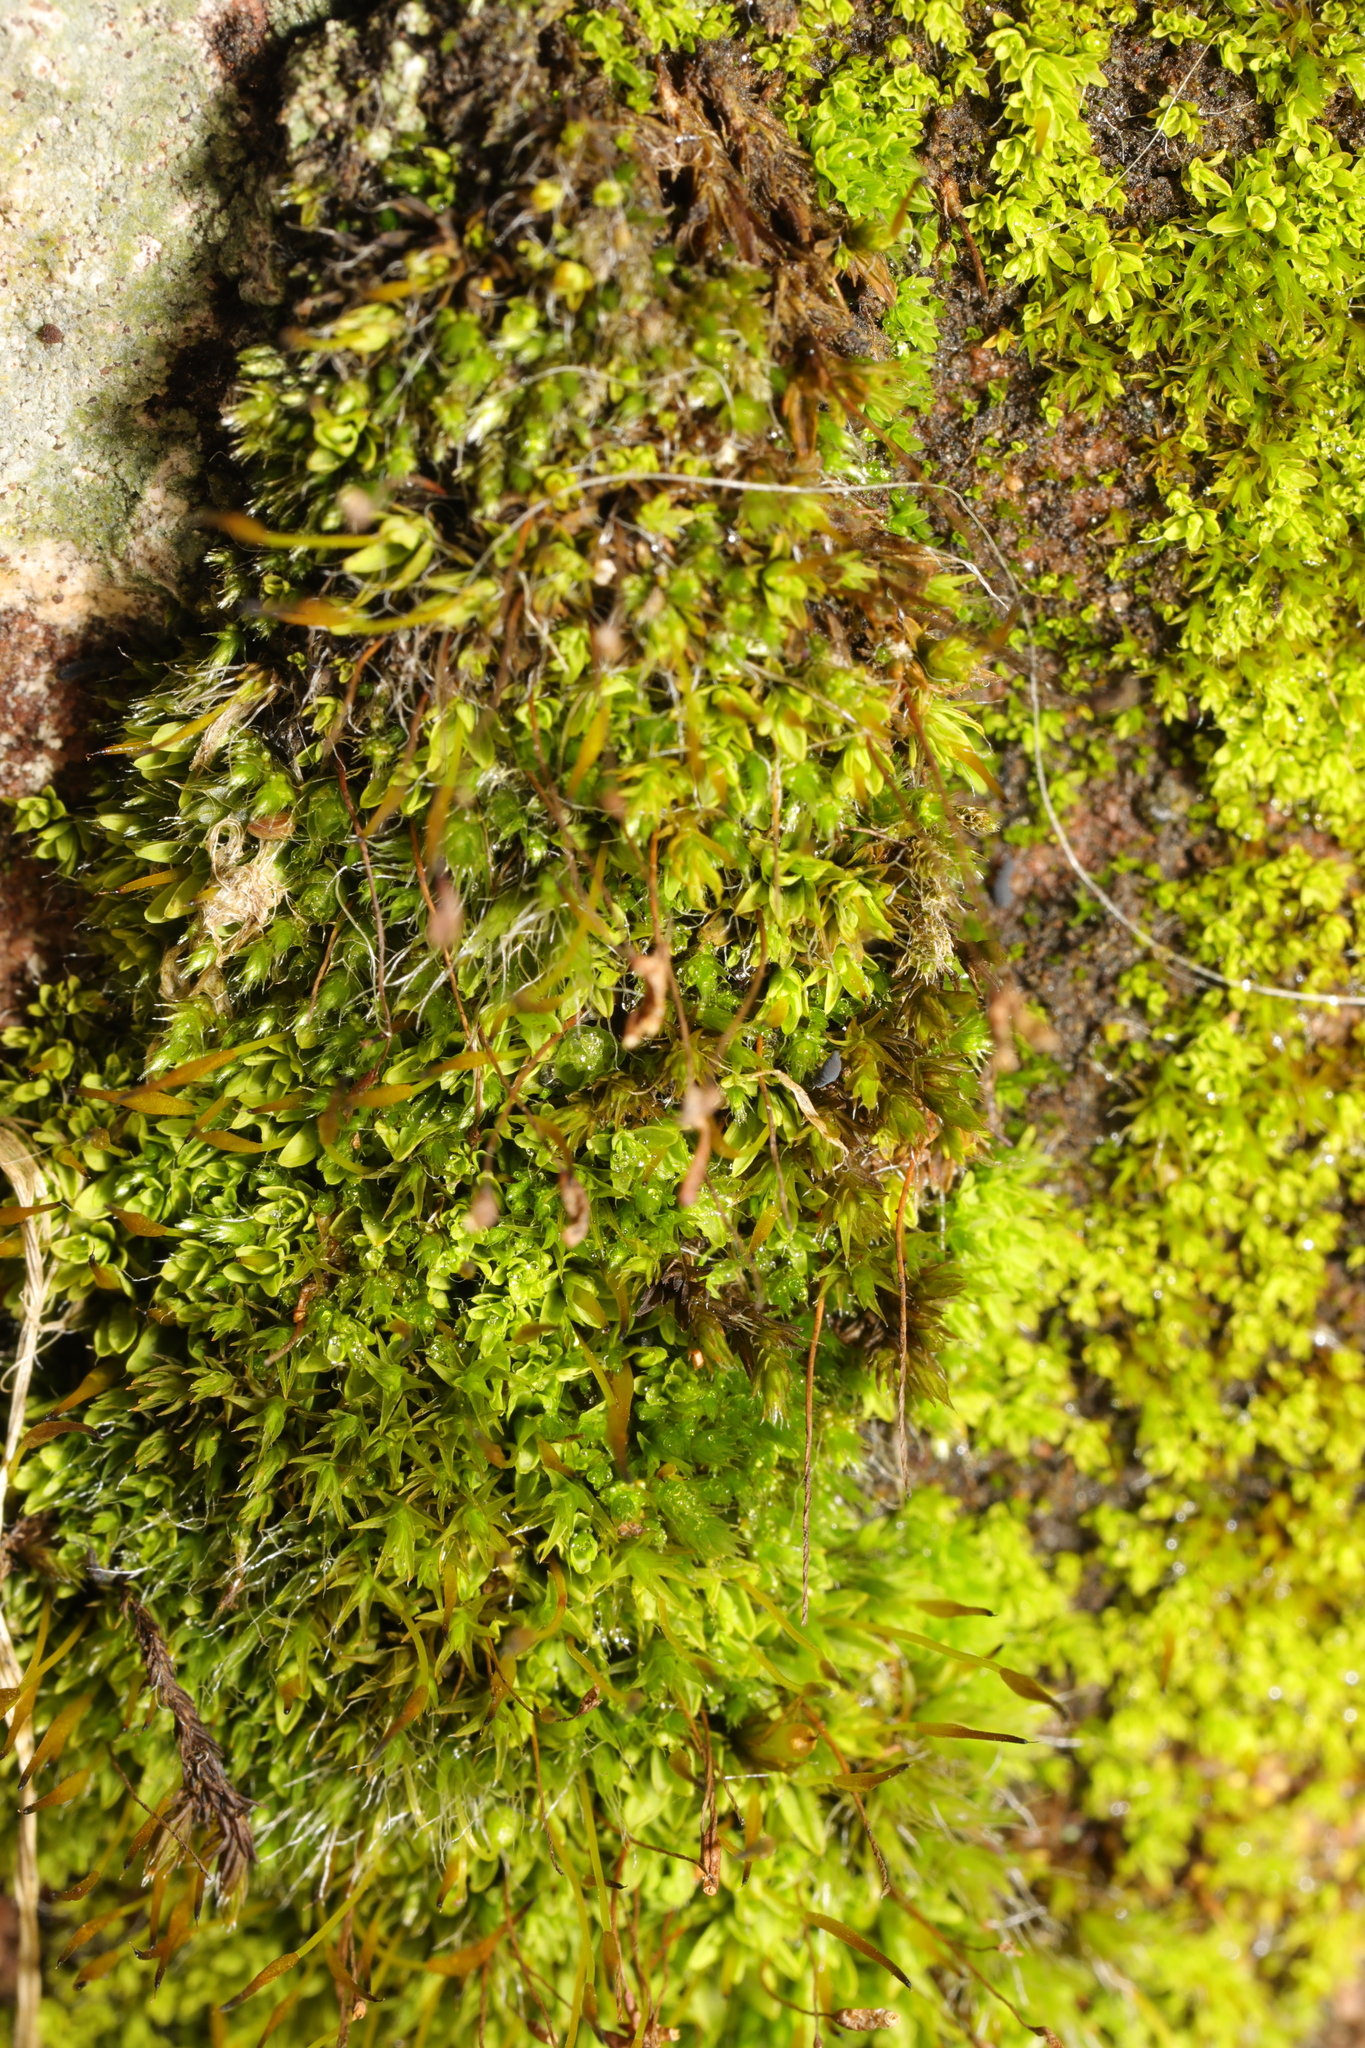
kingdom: Plantae
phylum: Bryophyta
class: Bryopsida
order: Pottiales
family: Pottiaceae
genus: Tortula
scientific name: Tortula muralis
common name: Wall screw-moss
